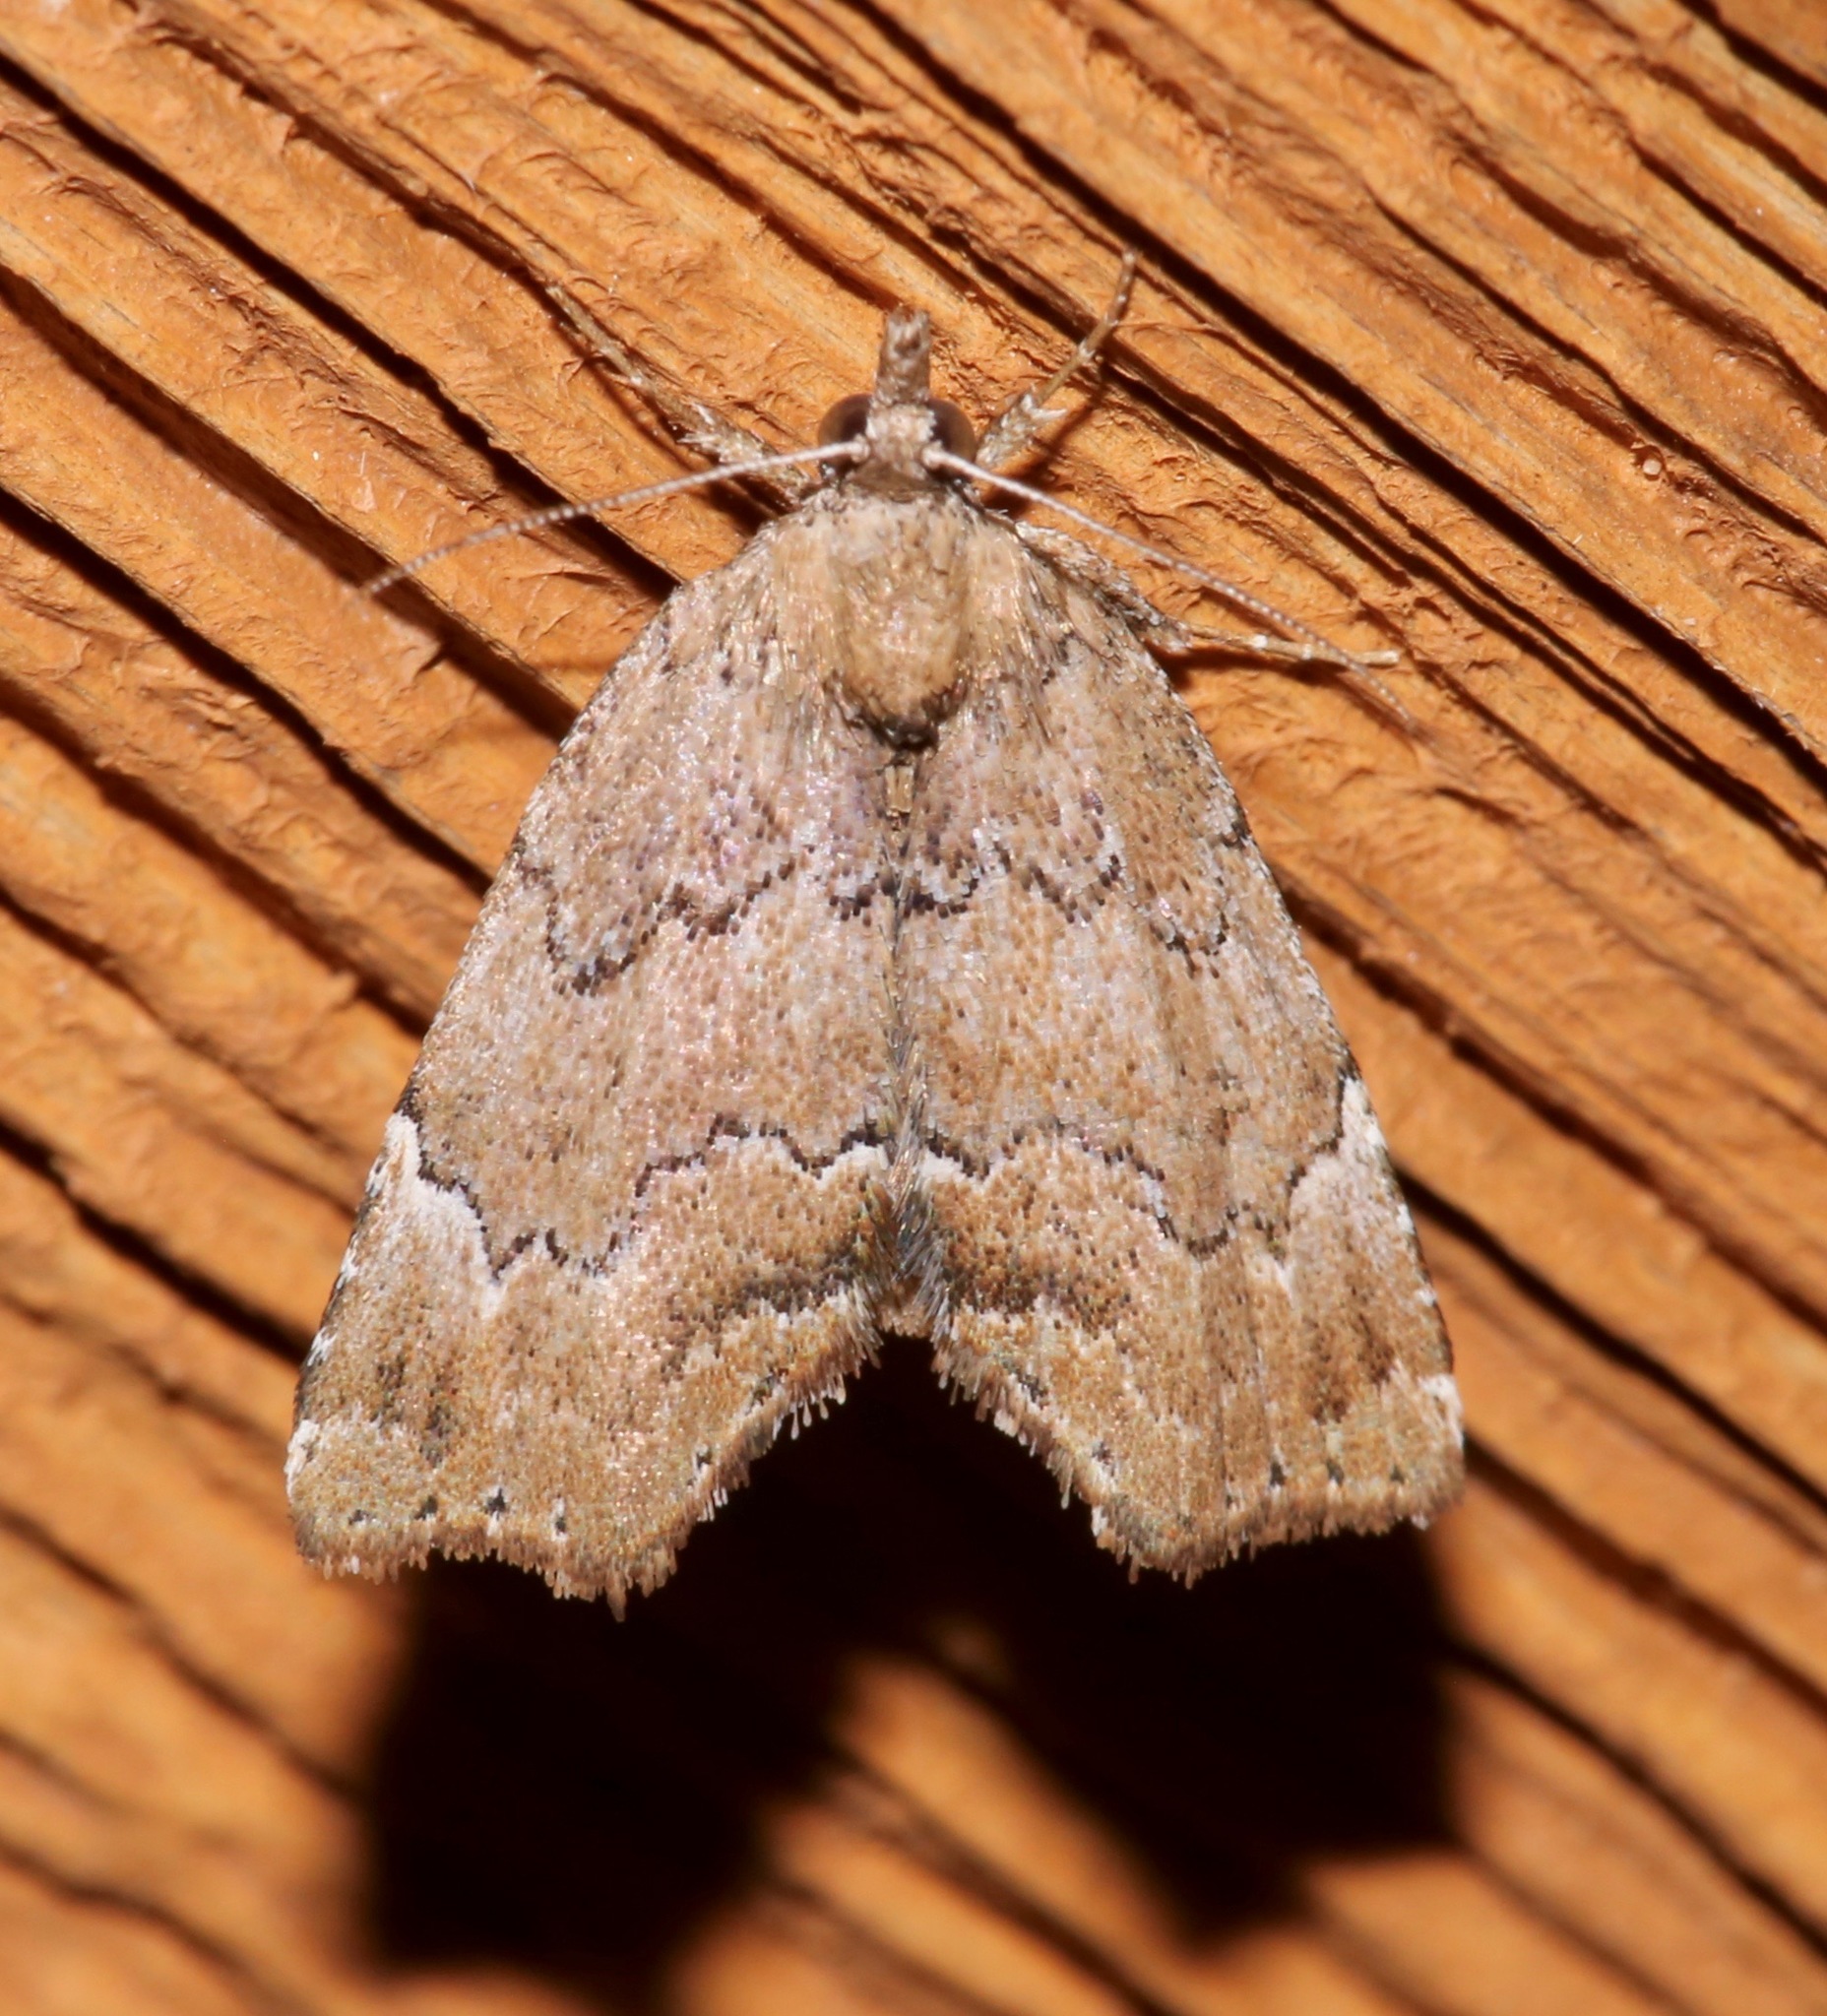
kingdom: Animalia
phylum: Arthropoda
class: Insecta
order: Lepidoptera
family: Erebidae
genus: Cutina
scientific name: Cutina aluticolor
